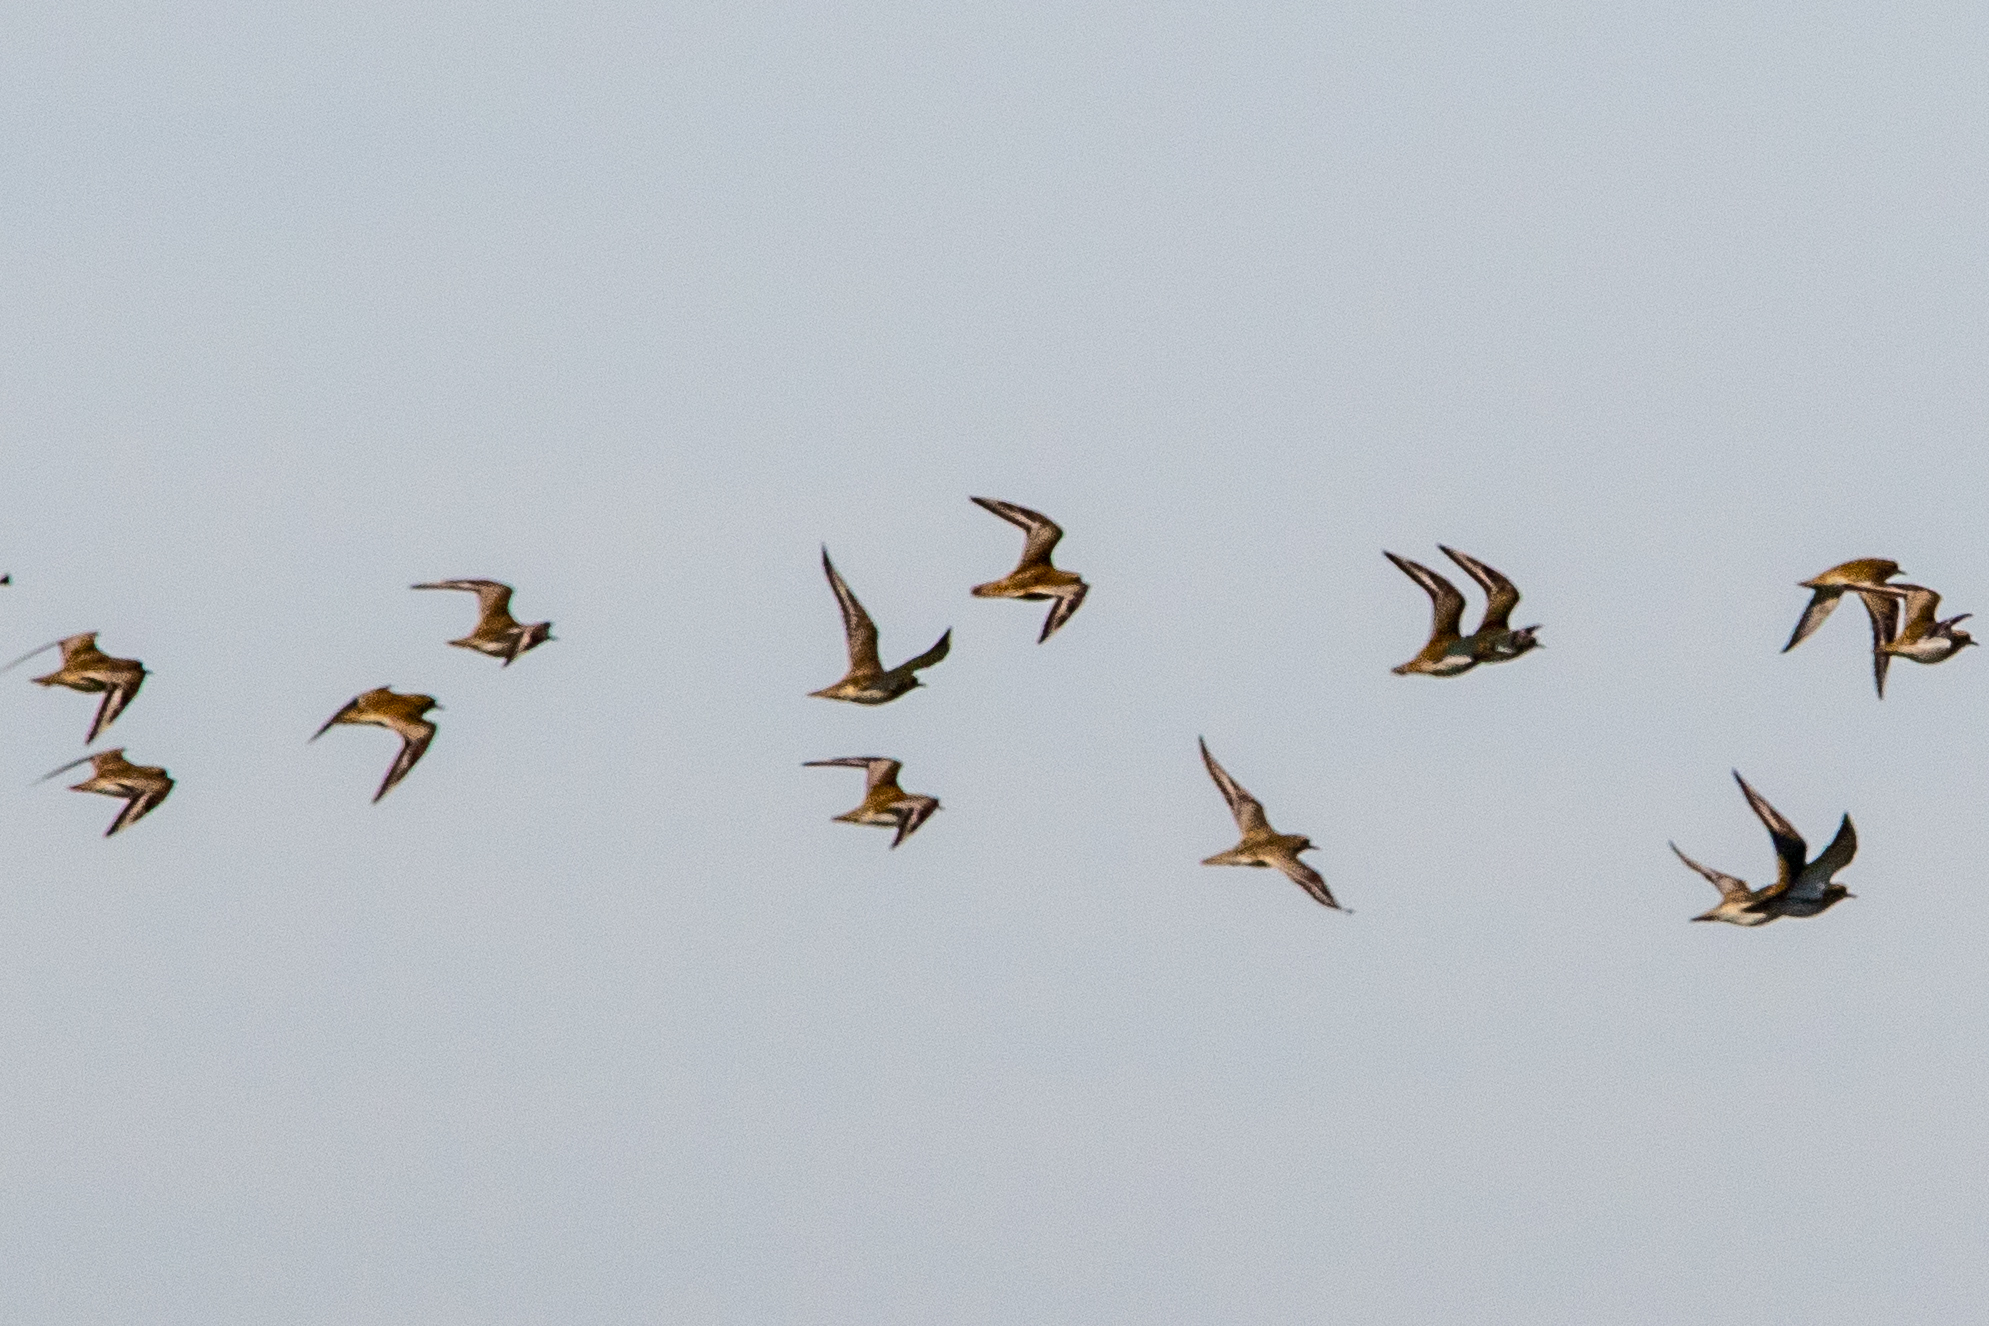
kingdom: Animalia
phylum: Chordata
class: Aves
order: Charadriiformes
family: Charadriidae
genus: Pluvialis
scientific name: Pluvialis apricaria
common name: European golden plover
